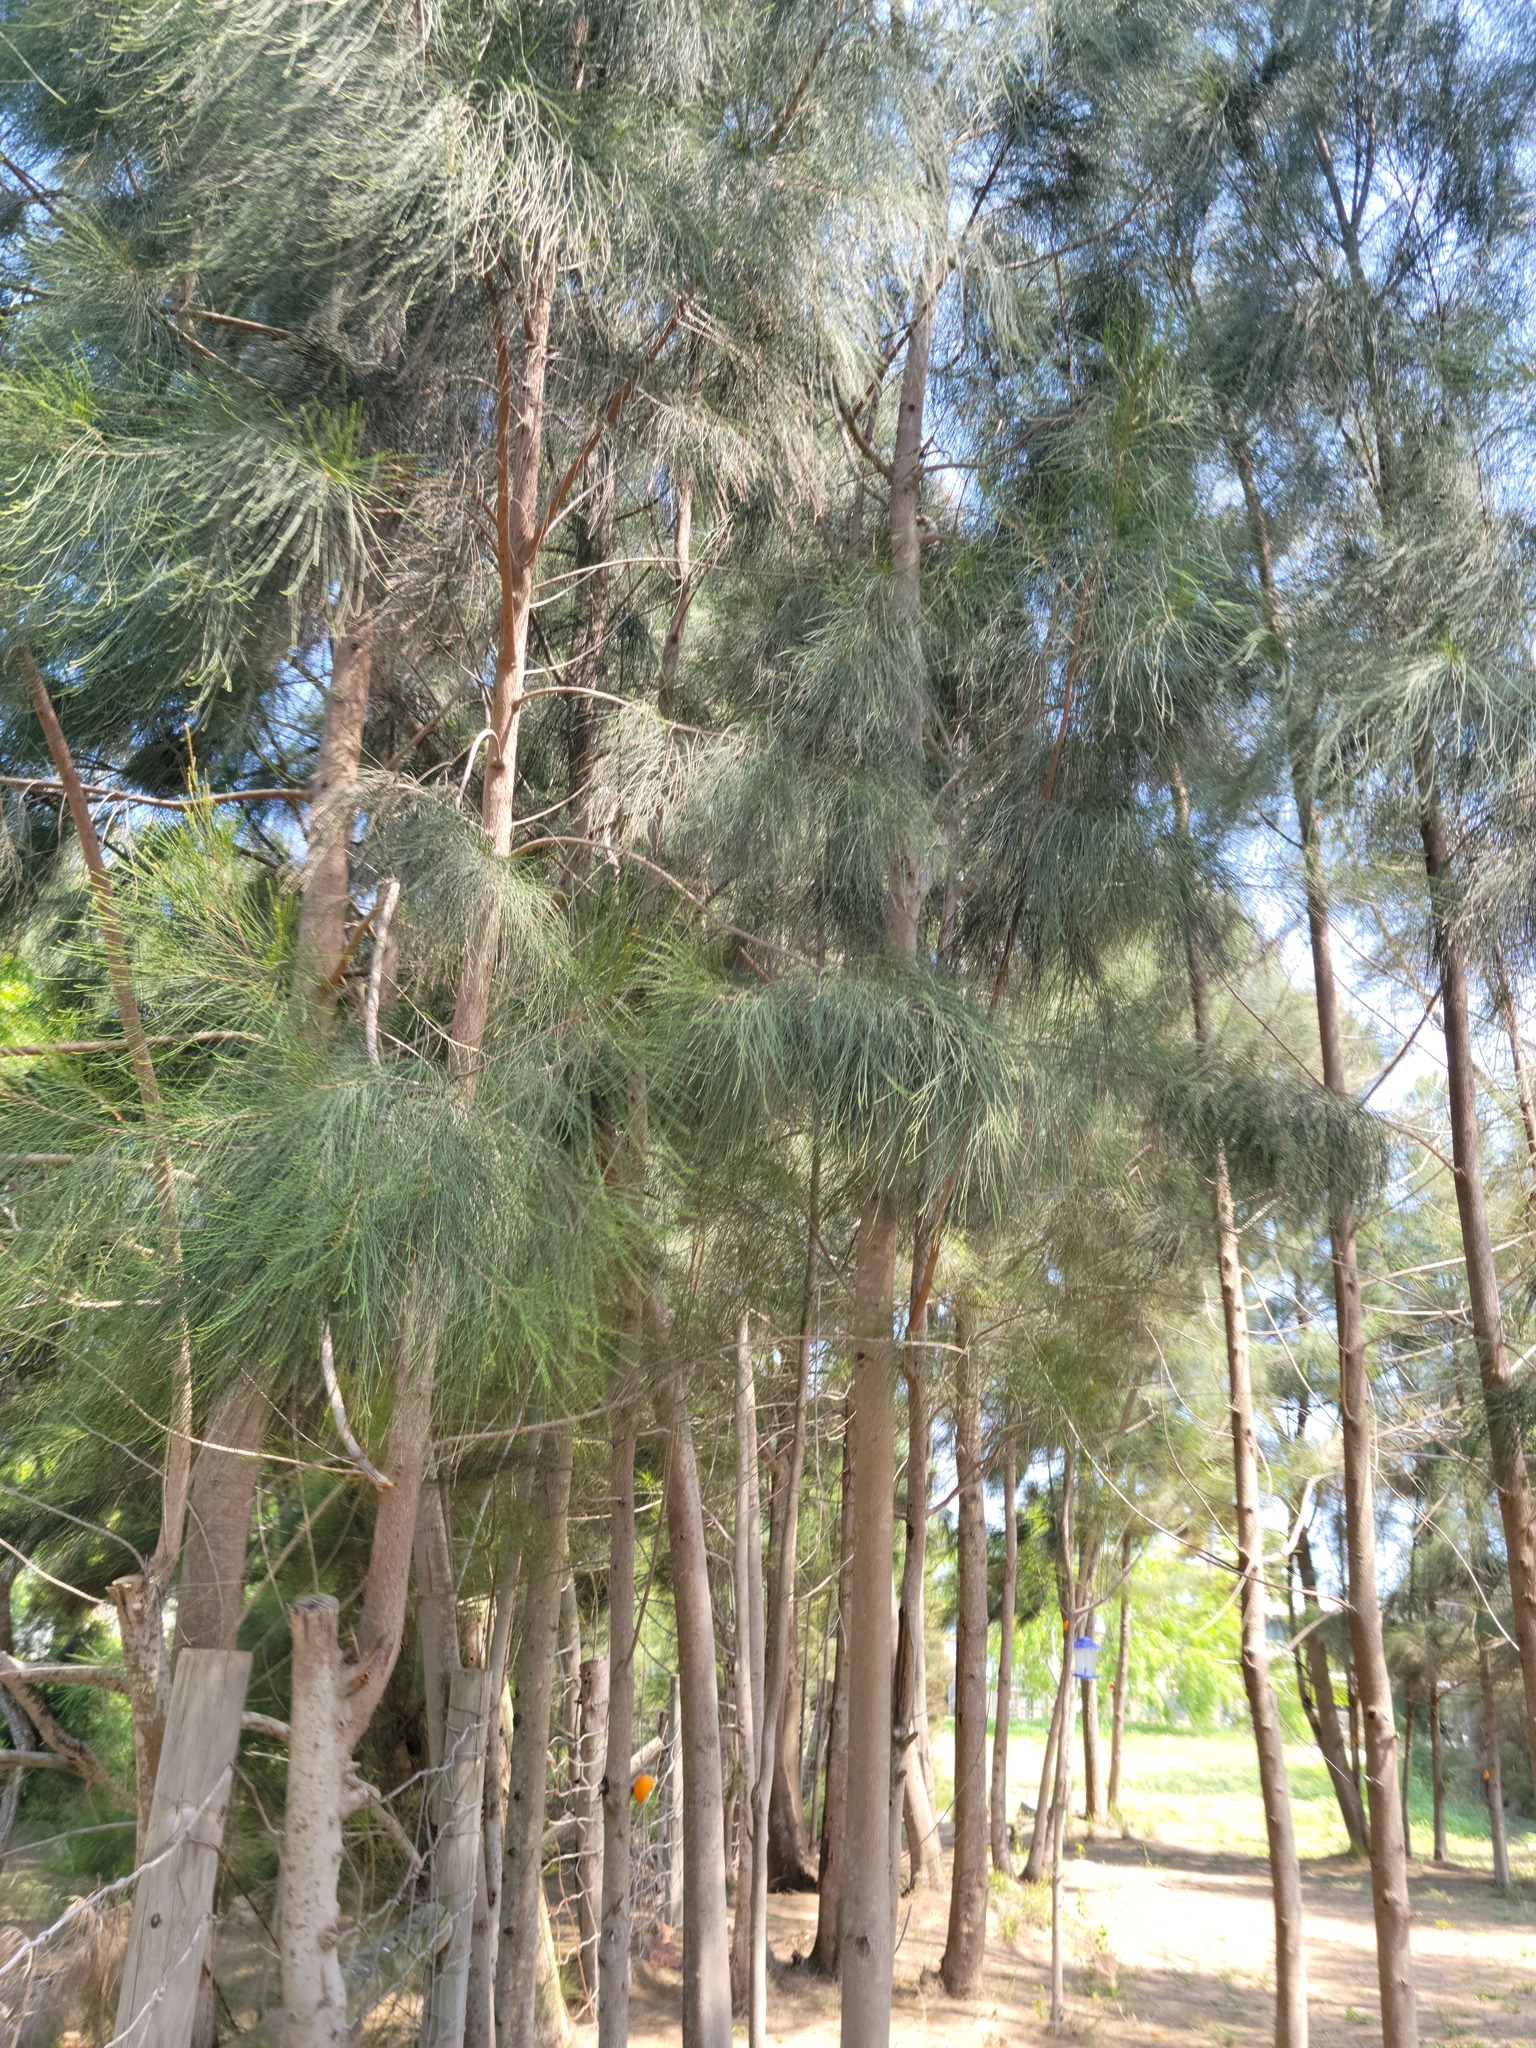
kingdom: Plantae
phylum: Tracheophyta
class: Magnoliopsida
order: Fagales
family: Casuarinaceae
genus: Casuarina
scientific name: Casuarina equisetifolia
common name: Beach sheoak
